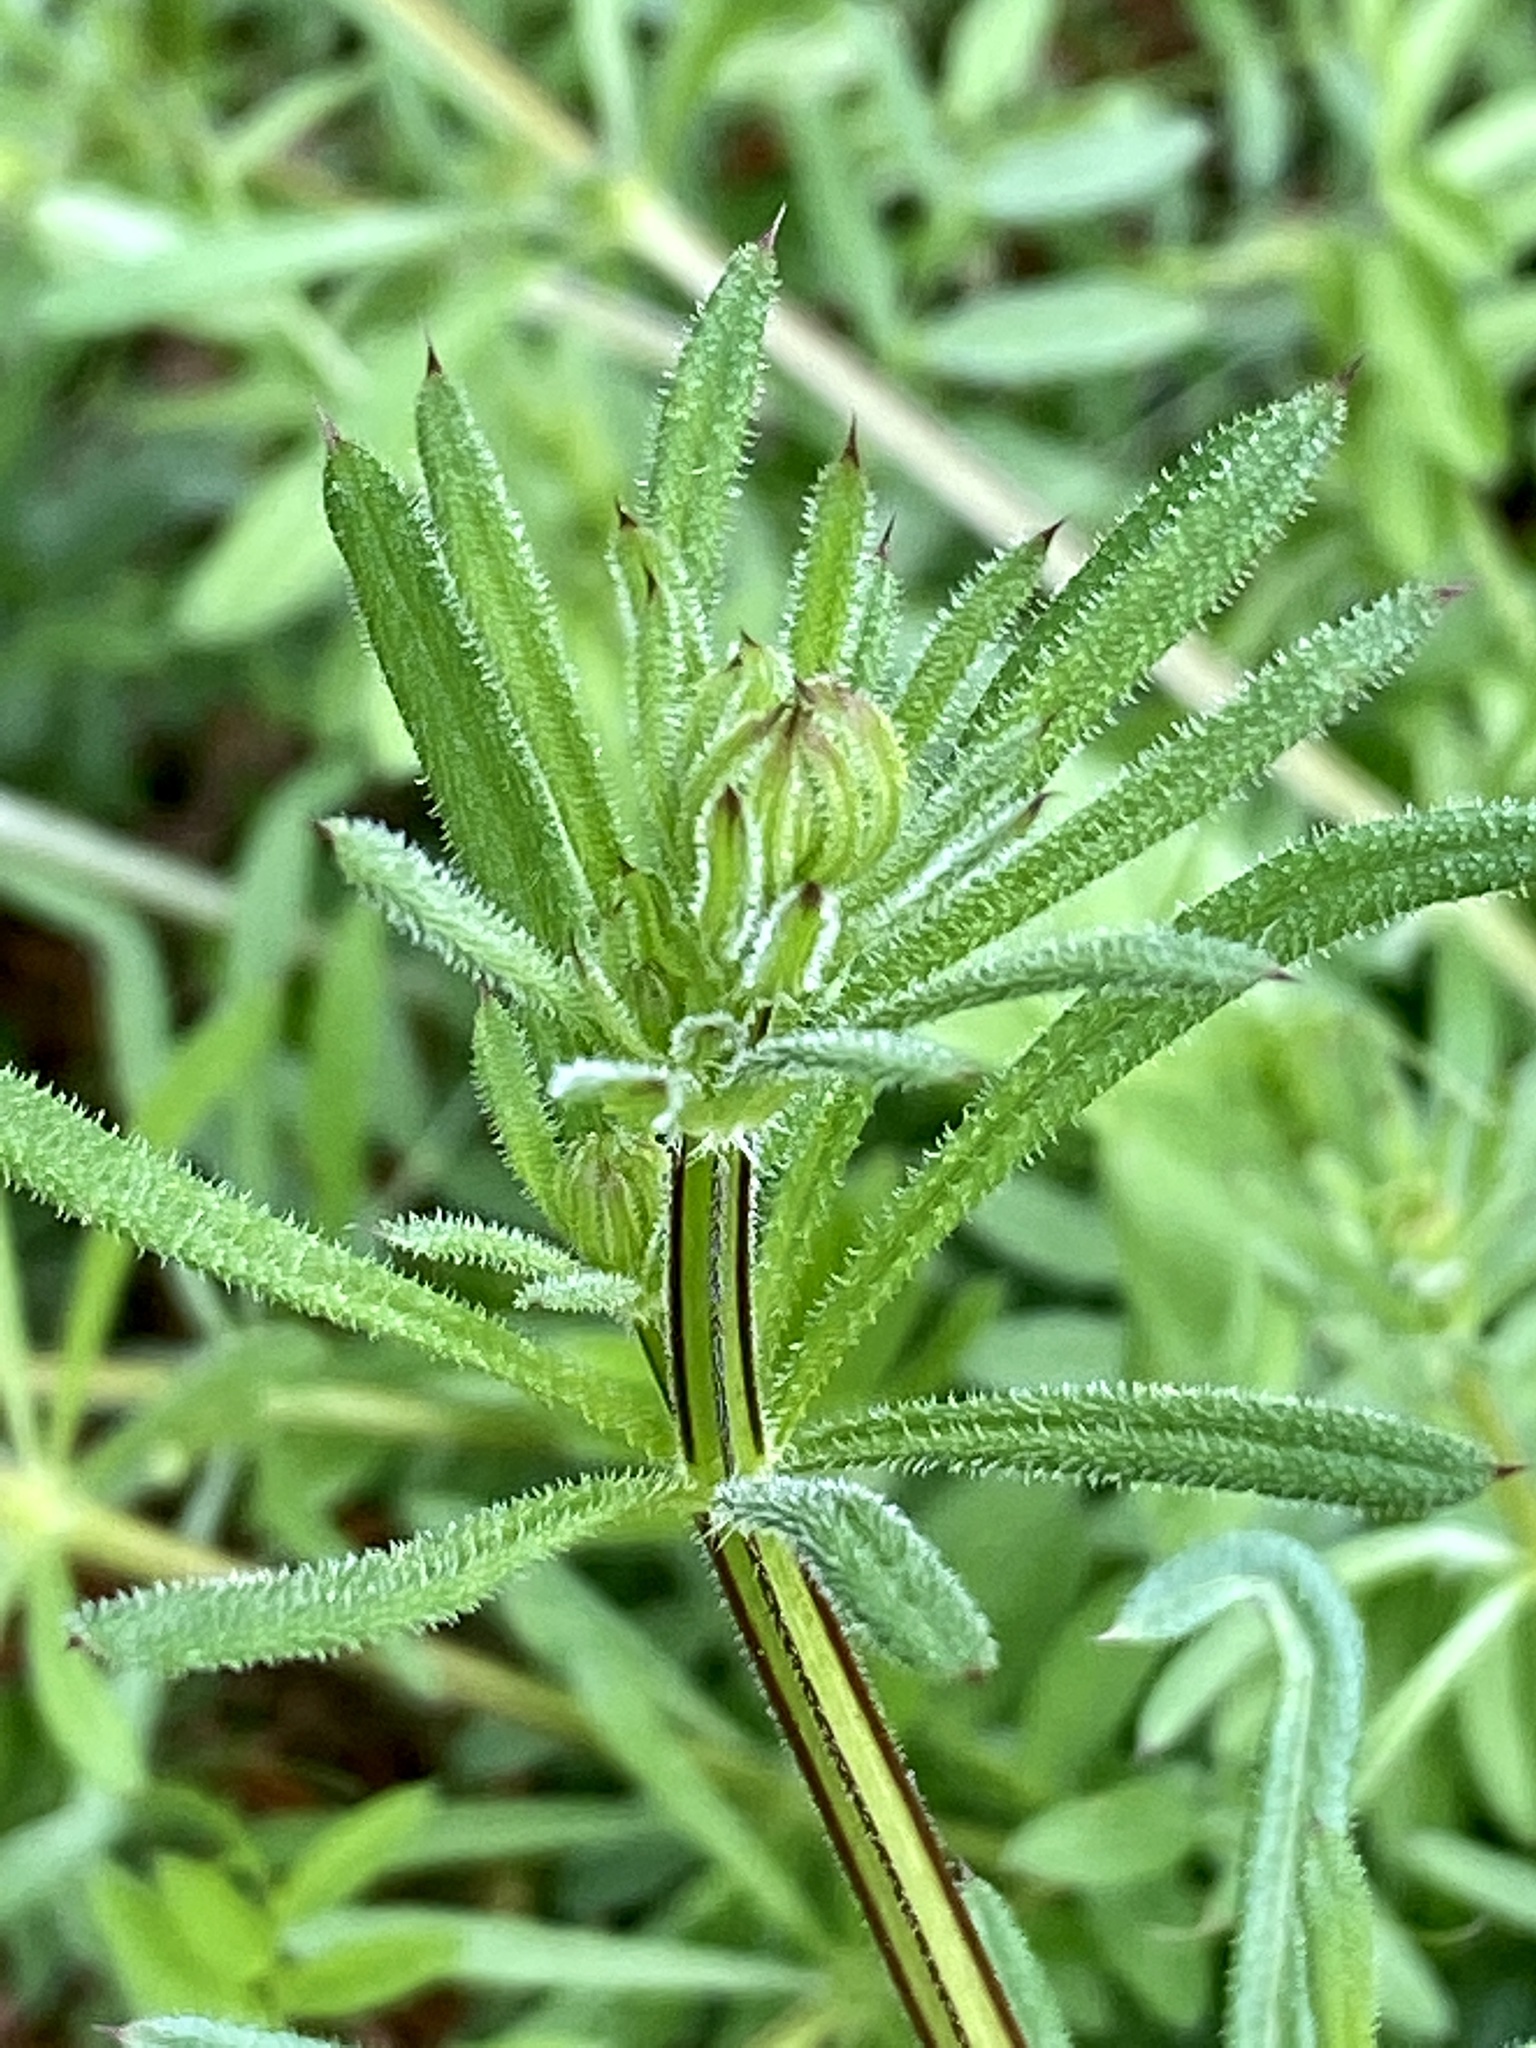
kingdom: Plantae
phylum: Tracheophyta
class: Magnoliopsida
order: Gentianales
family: Rubiaceae
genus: Galium
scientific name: Galium aparine
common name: Cleavers
